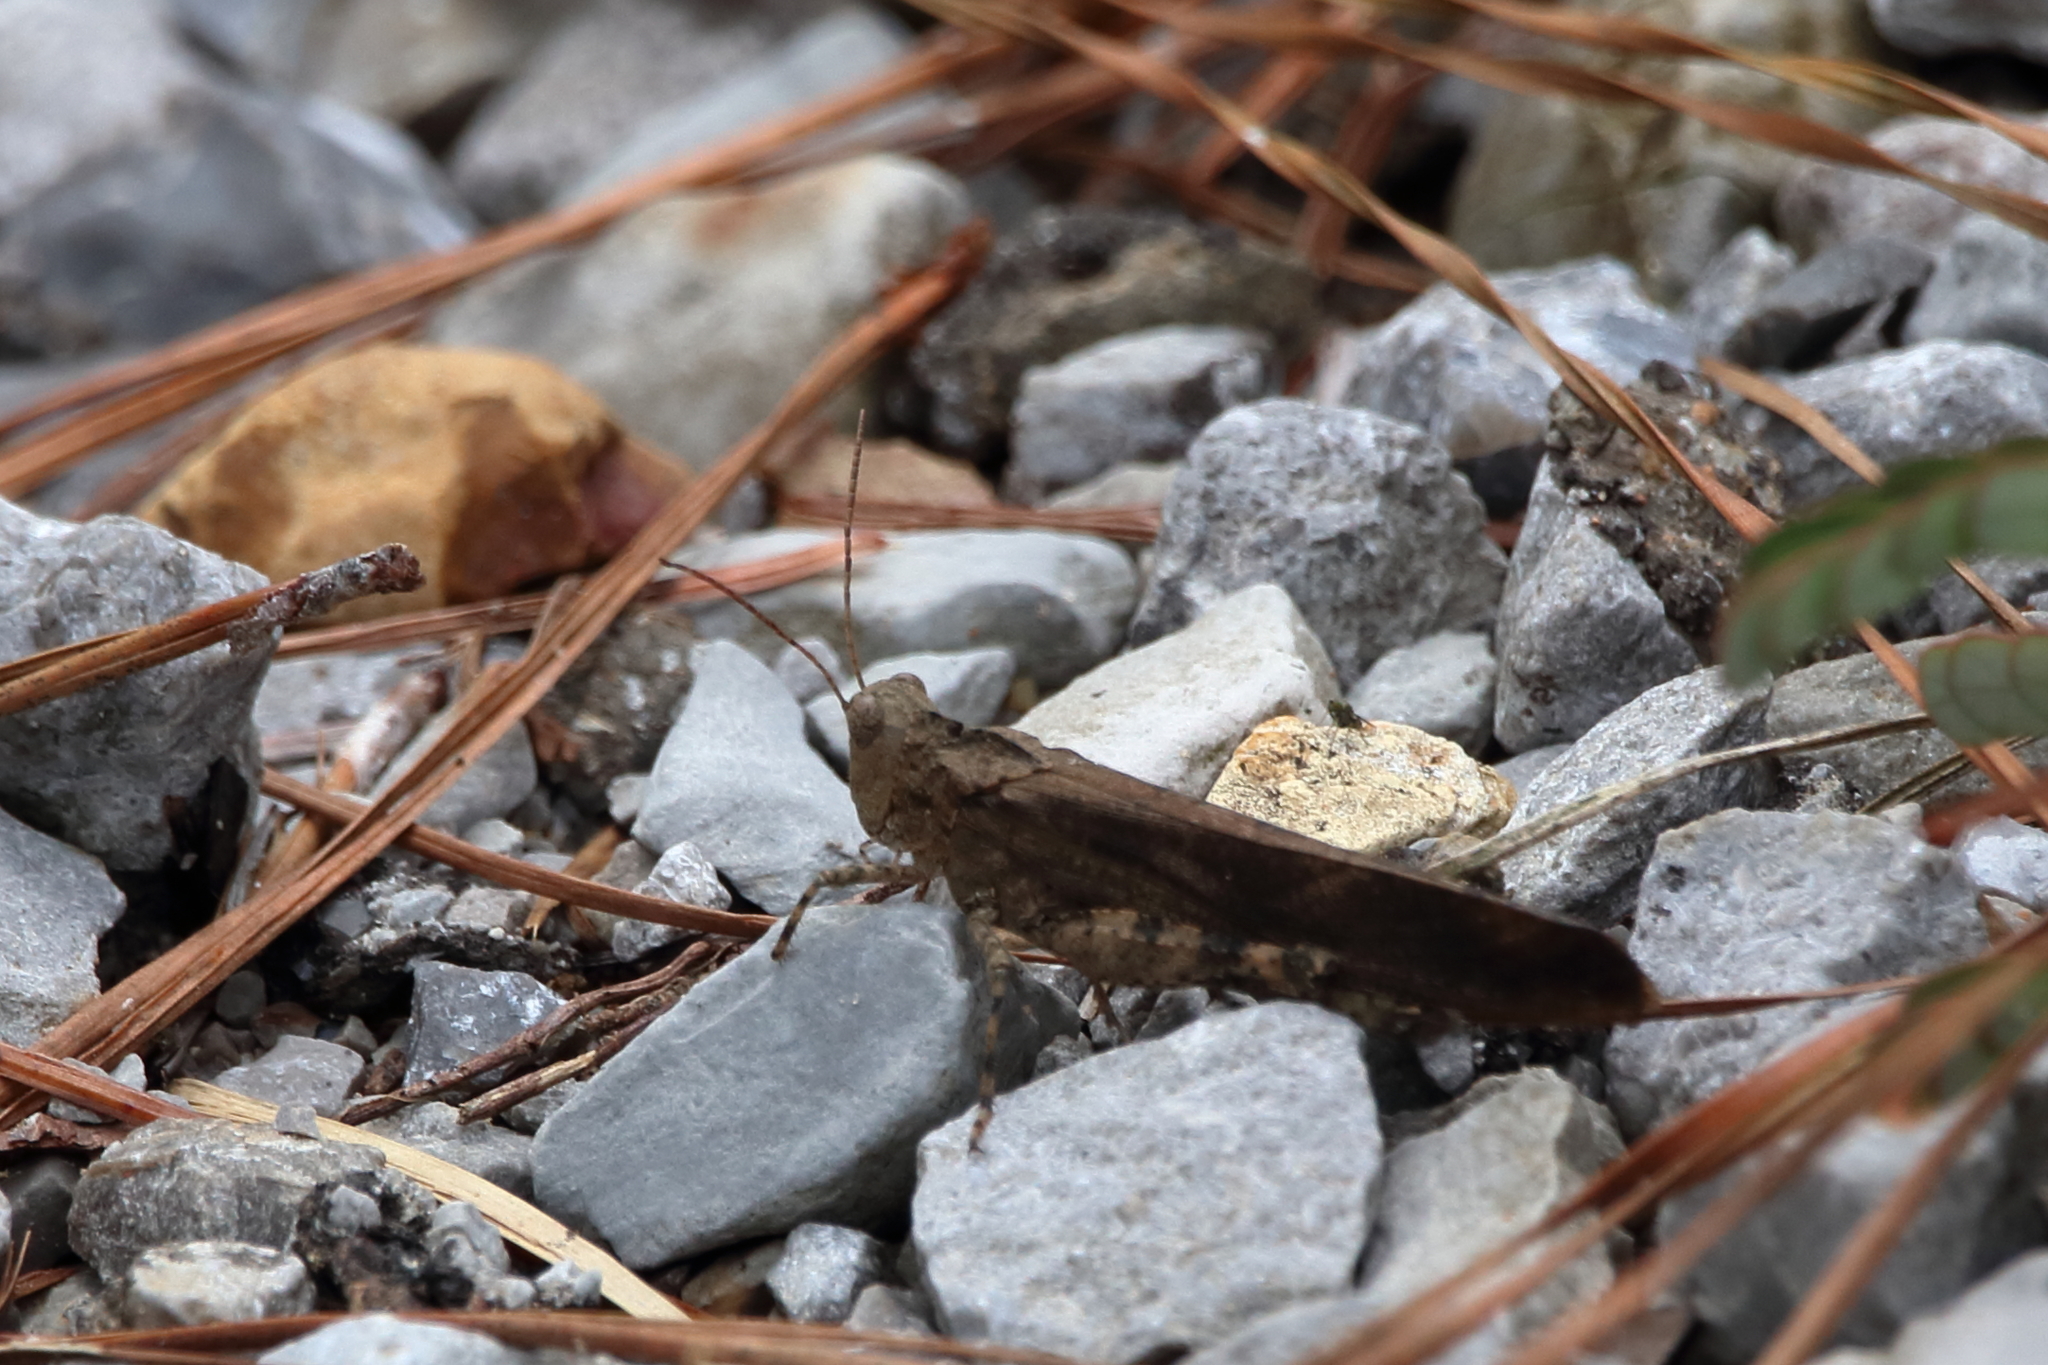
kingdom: Animalia
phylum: Arthropoda
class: Insecta
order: Orthoptera
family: Acrididae
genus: Dissosteira
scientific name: Dissosteira carolina
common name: Carolina grasshopper
